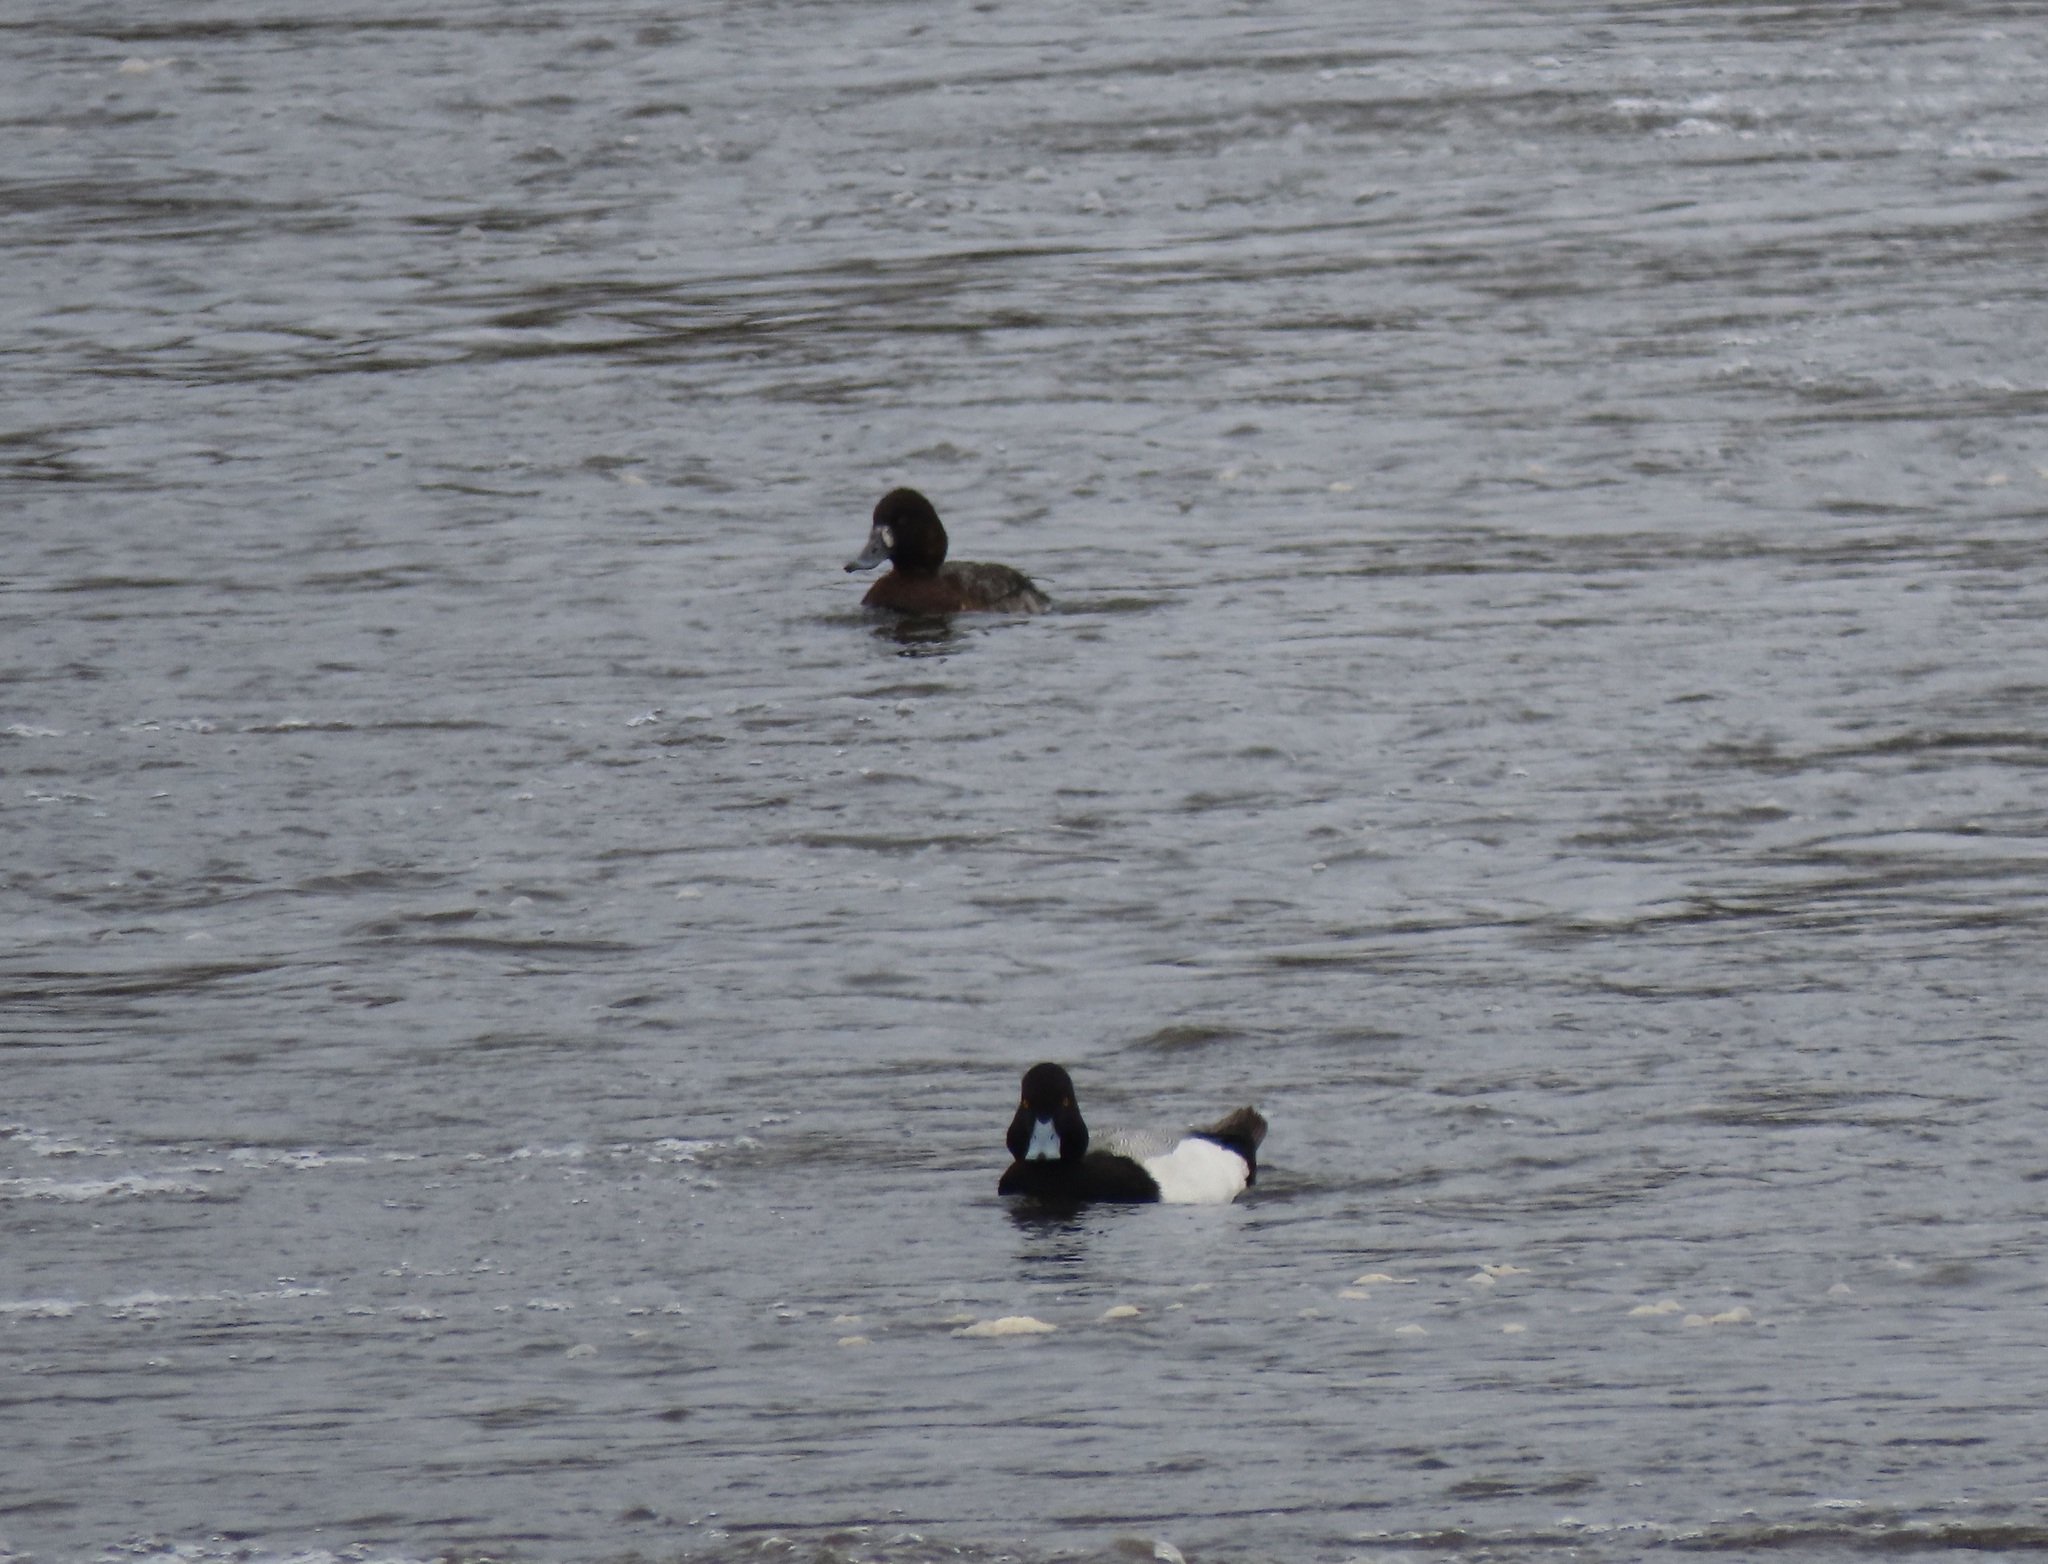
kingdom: Animalia
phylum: Chordata
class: Aves
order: Anseriformes
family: Anatidae
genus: Aythya
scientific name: Aythya affinis
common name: Lesser scaup
